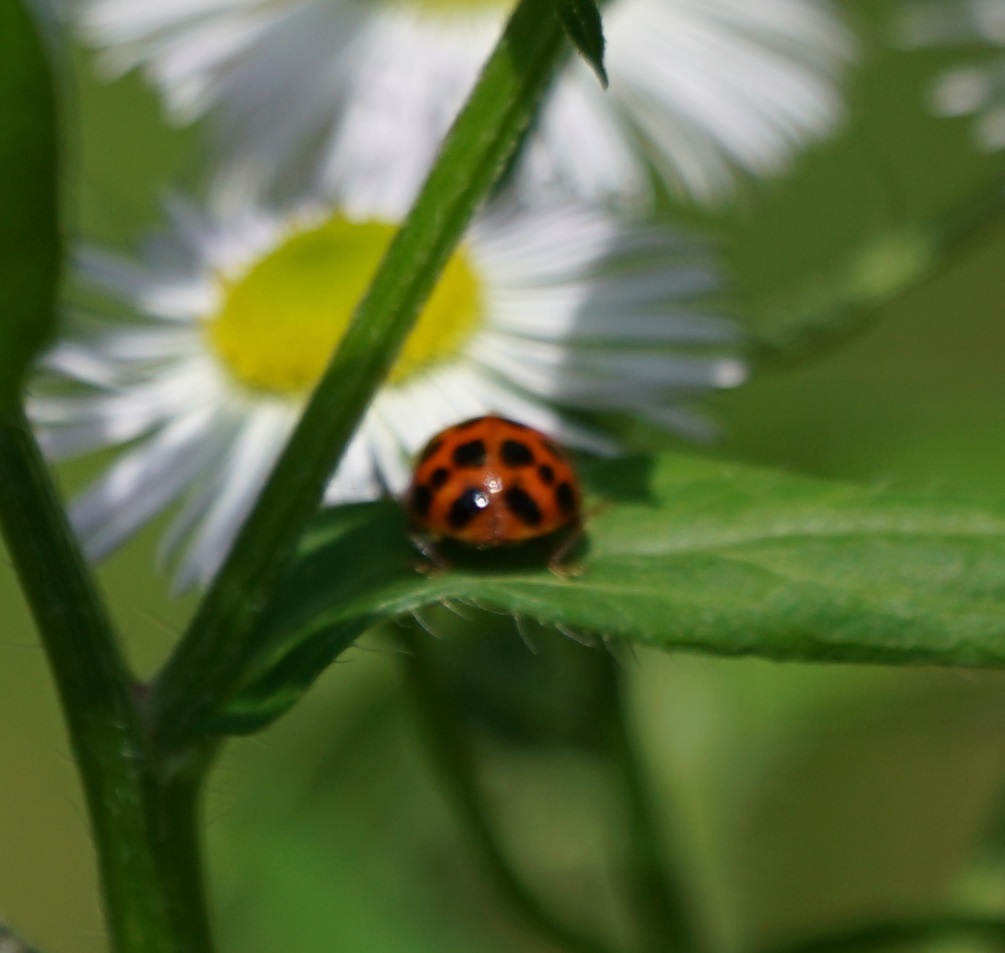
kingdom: Animalia
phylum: Arthropoda
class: Insecta
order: Coleoptera
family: Coccinellidae
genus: Harmonia
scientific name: Harmonia axyridis
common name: Harlequin ladybird
